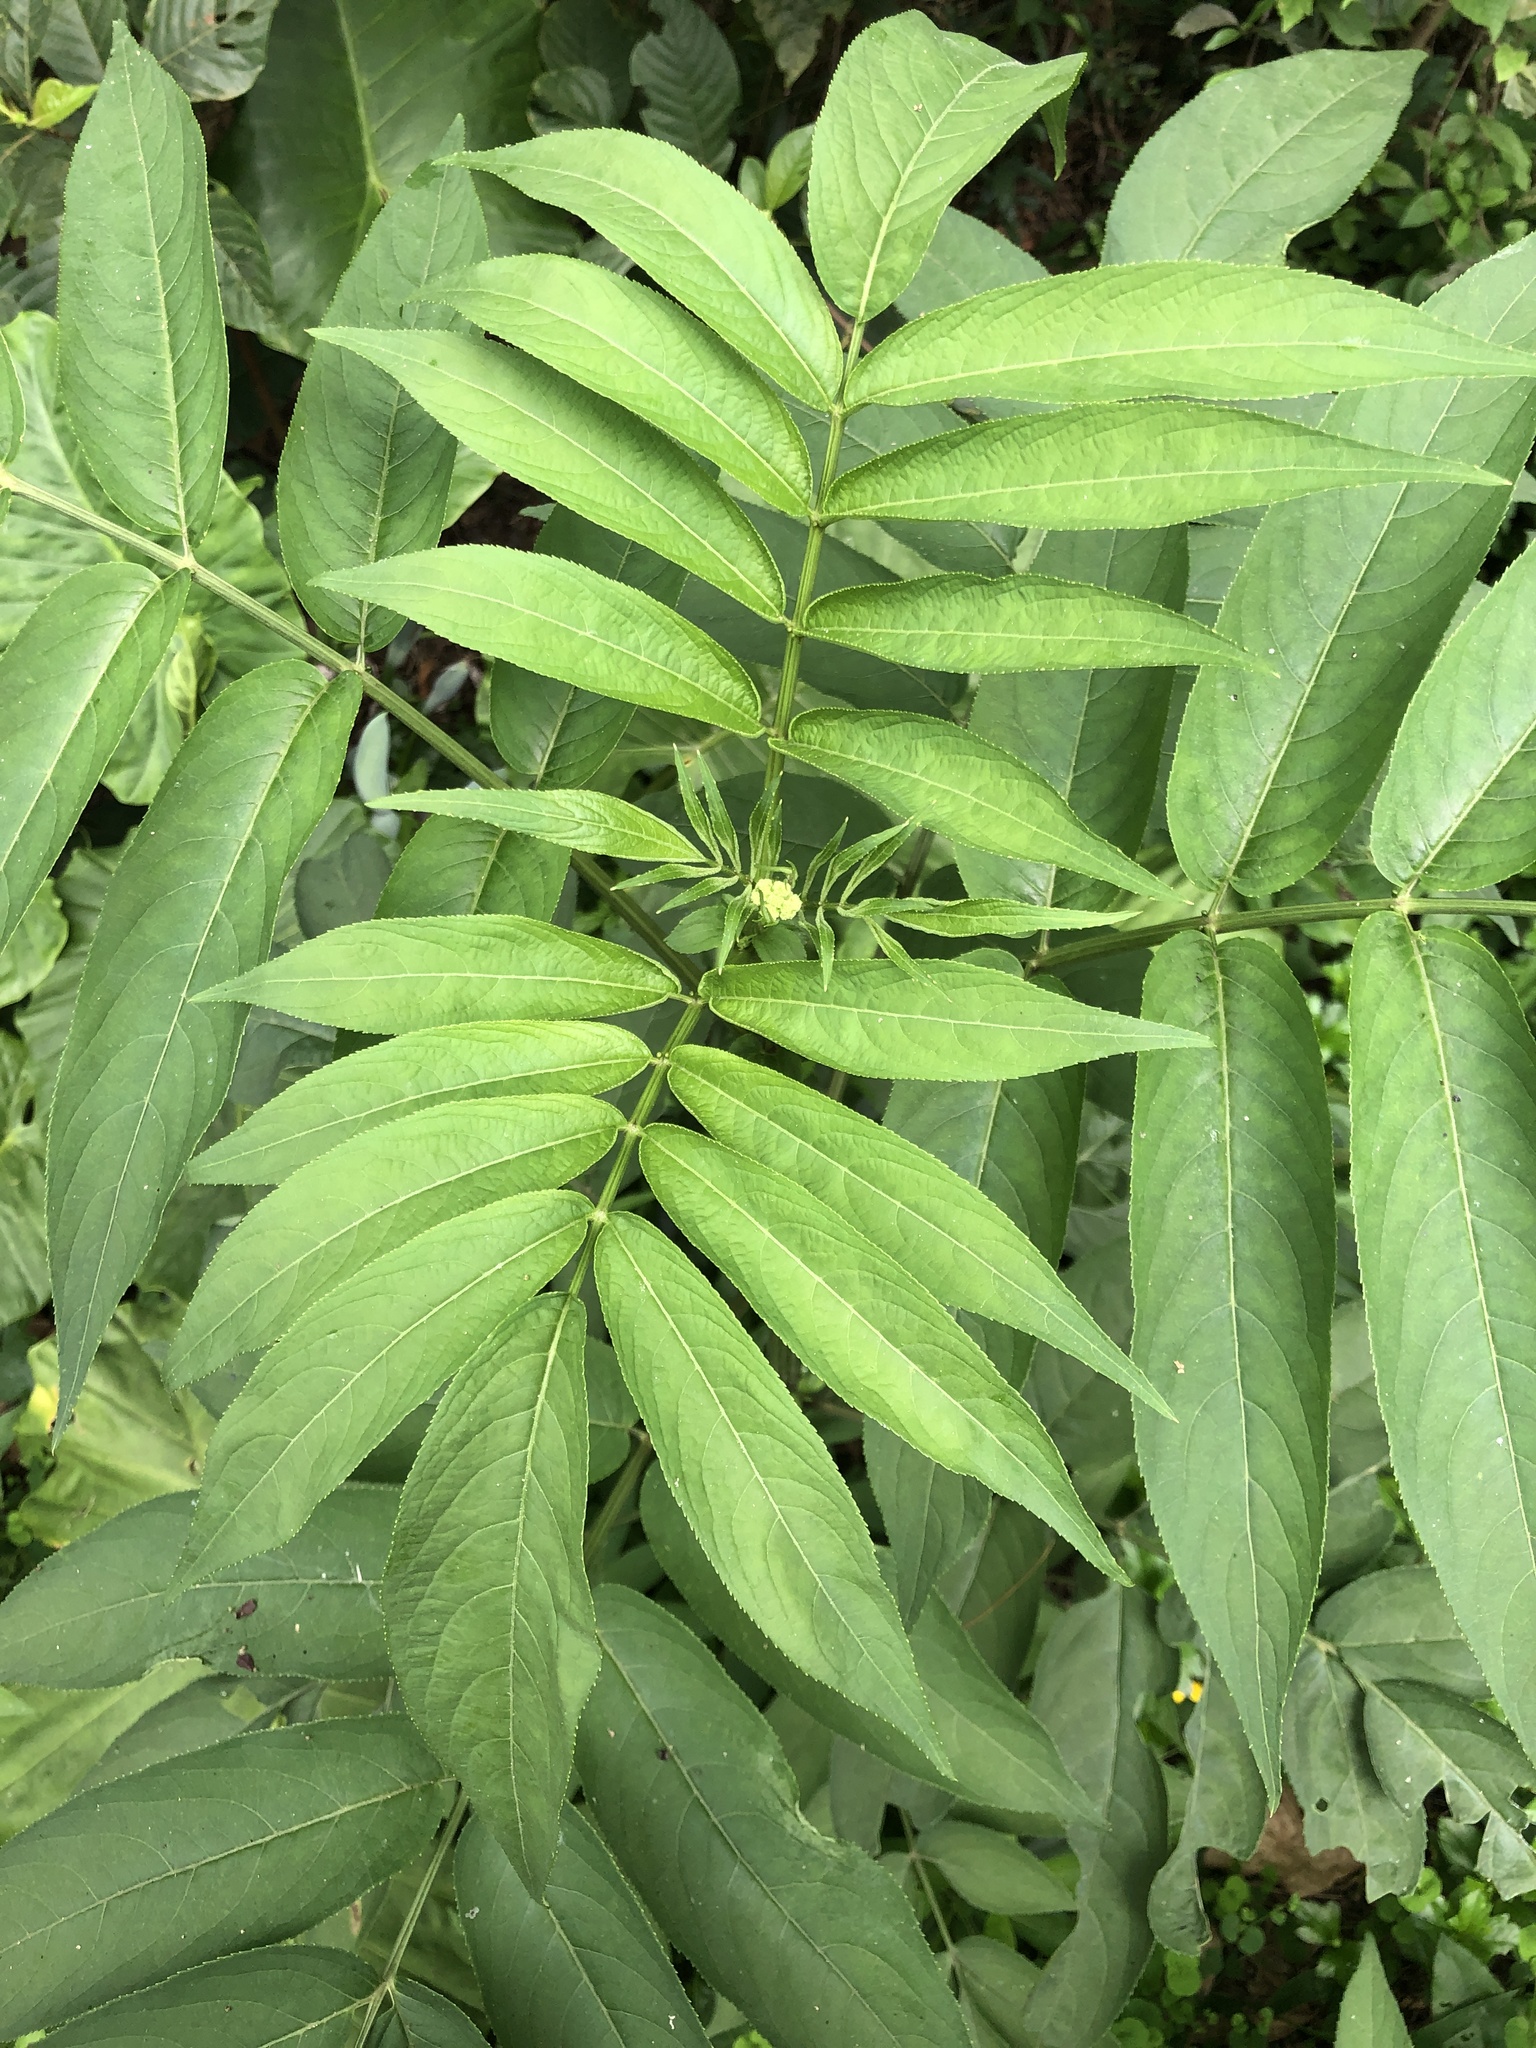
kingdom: Plantae
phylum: Tracheophyta
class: Magnoliopsida
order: Dipsacales
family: Viburnaceae
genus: Sambucus
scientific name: Sambucus javanica
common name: Chinese elder
